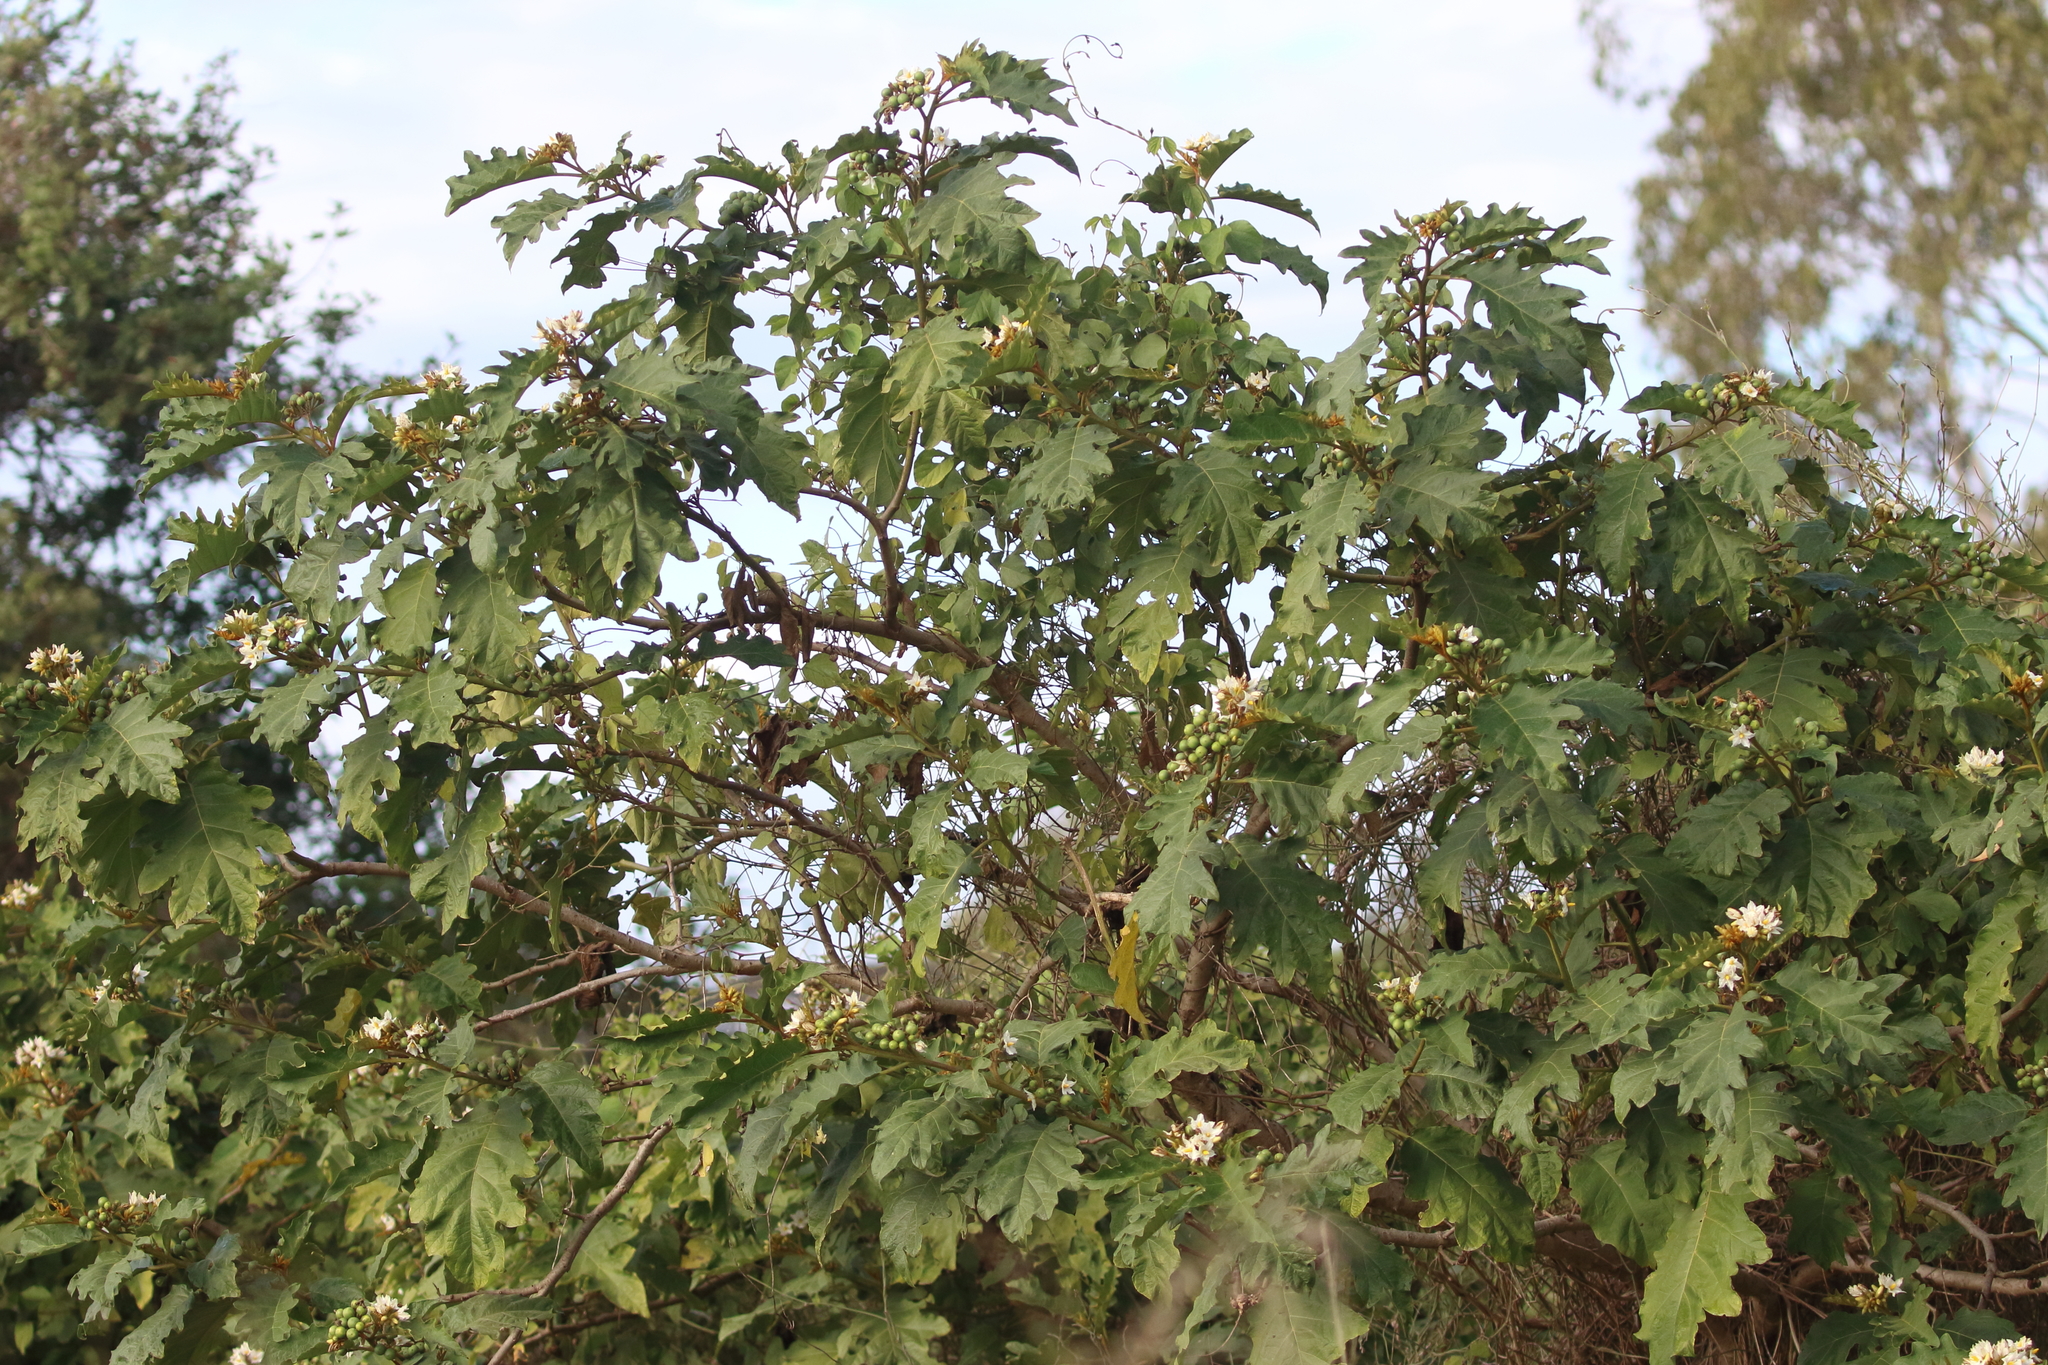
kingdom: Plantae
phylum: Tracheophyta
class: Magnoliopsida
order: Solanales
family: Solanaceae
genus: Solanum
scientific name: Solanum chrysotrichum
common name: Nightshade
